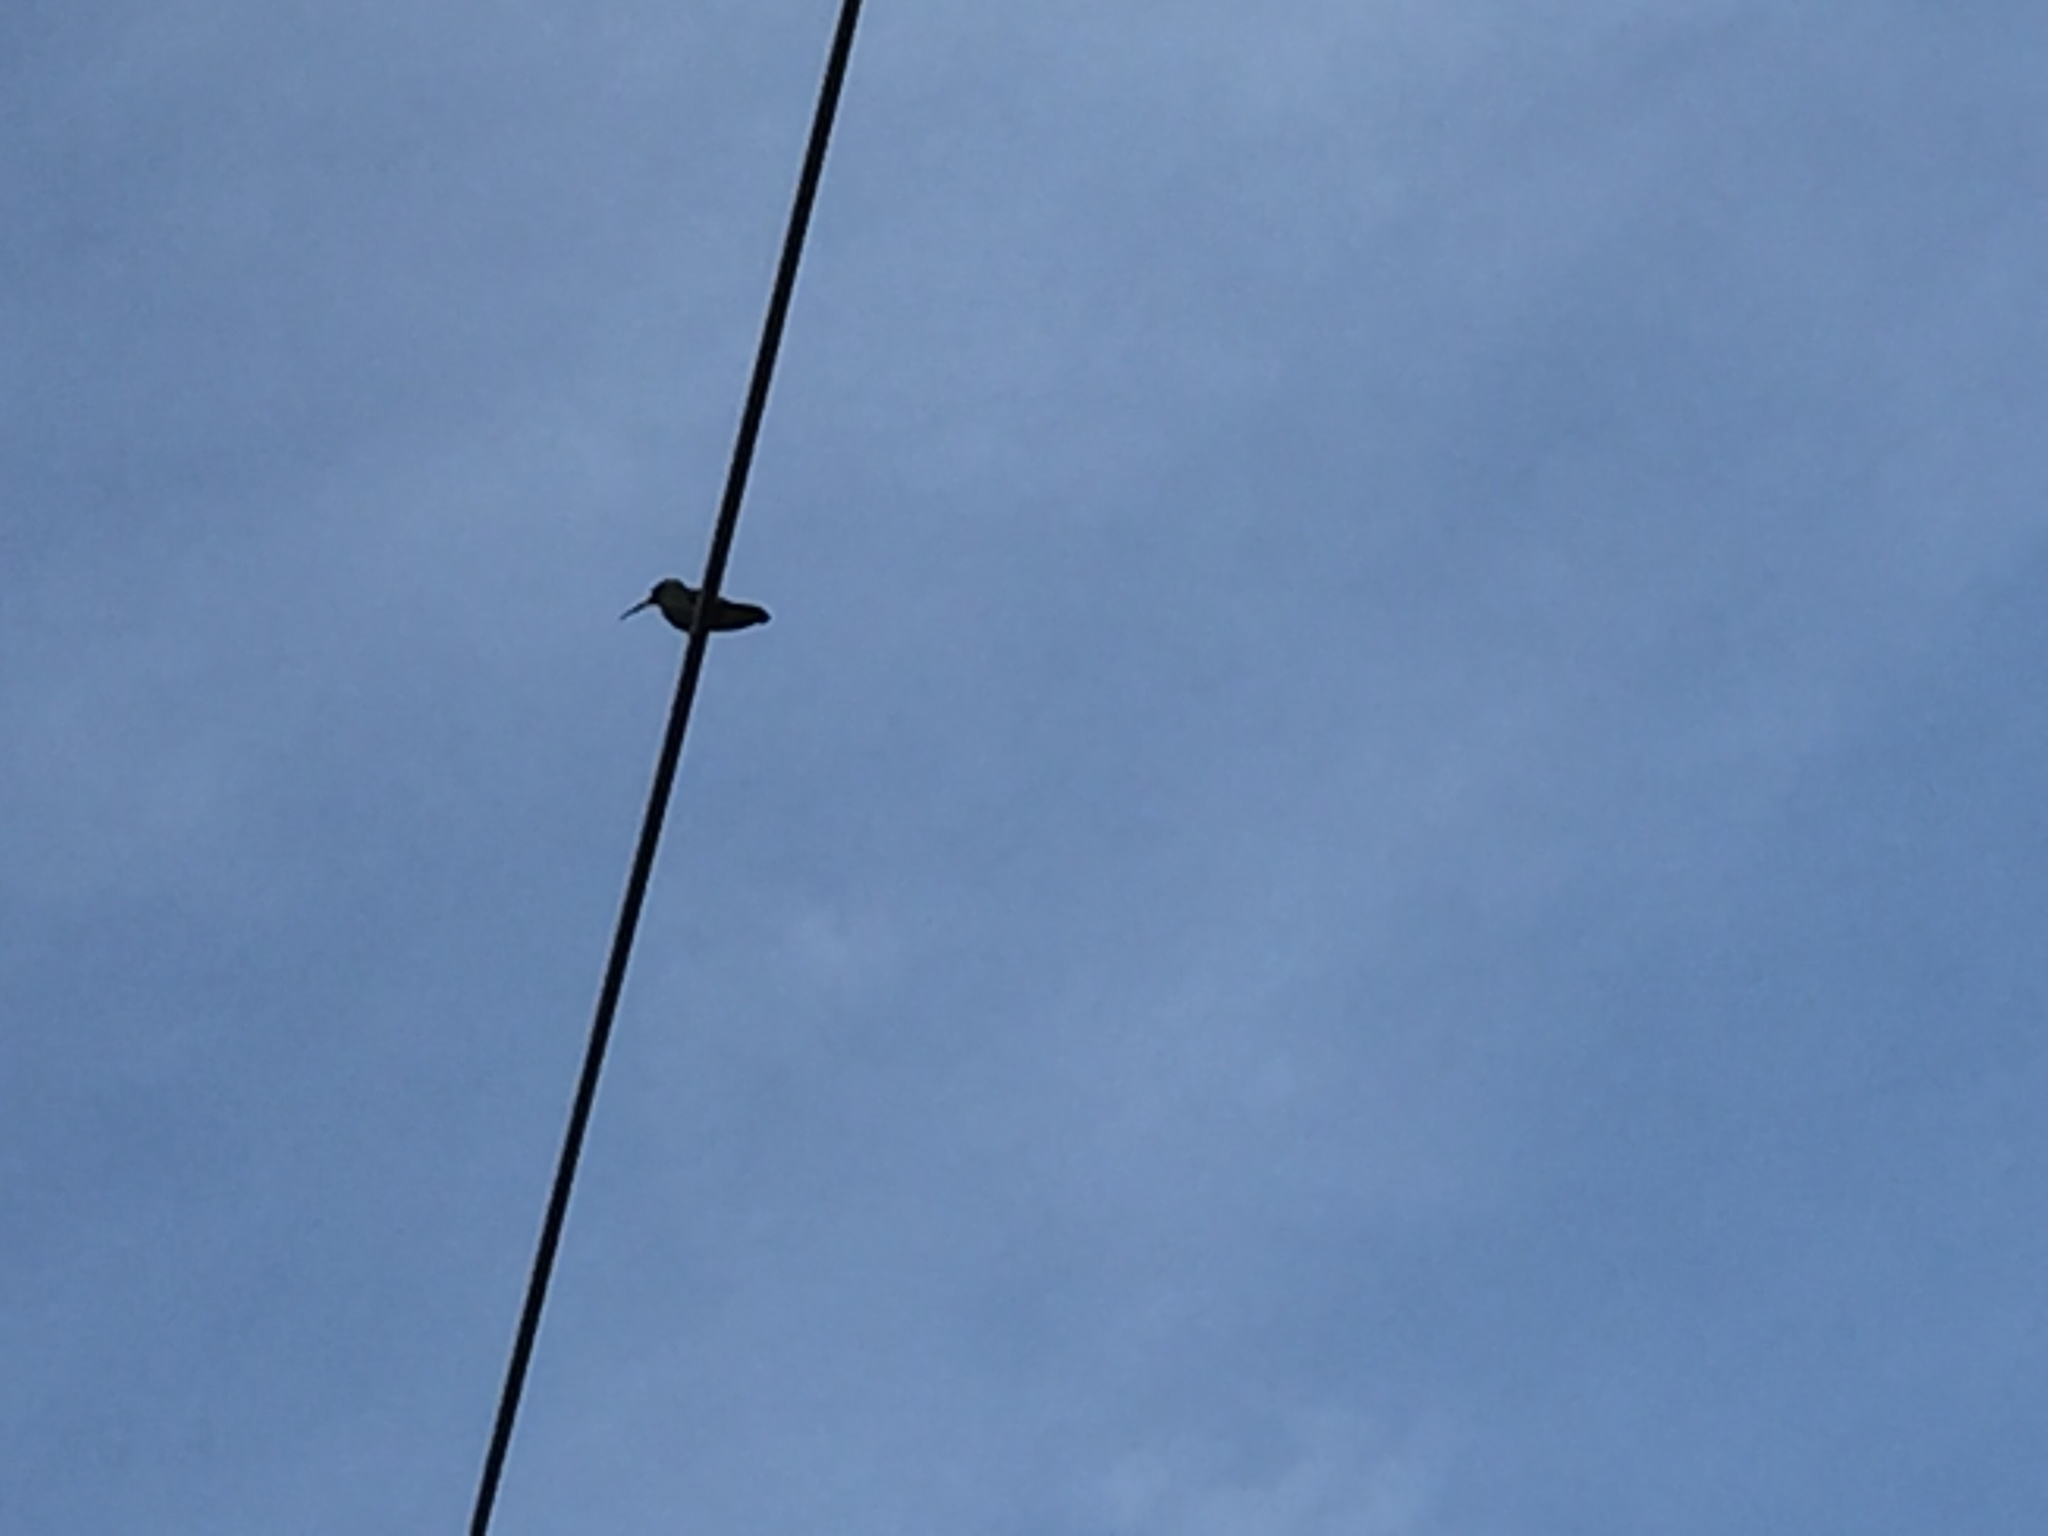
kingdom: Animalia
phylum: Chordata
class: Aves
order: Apodiformes
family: Trochilidae
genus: Cynanthus
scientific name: Cynanthus latirostris
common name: Broad-billed hummingbird
